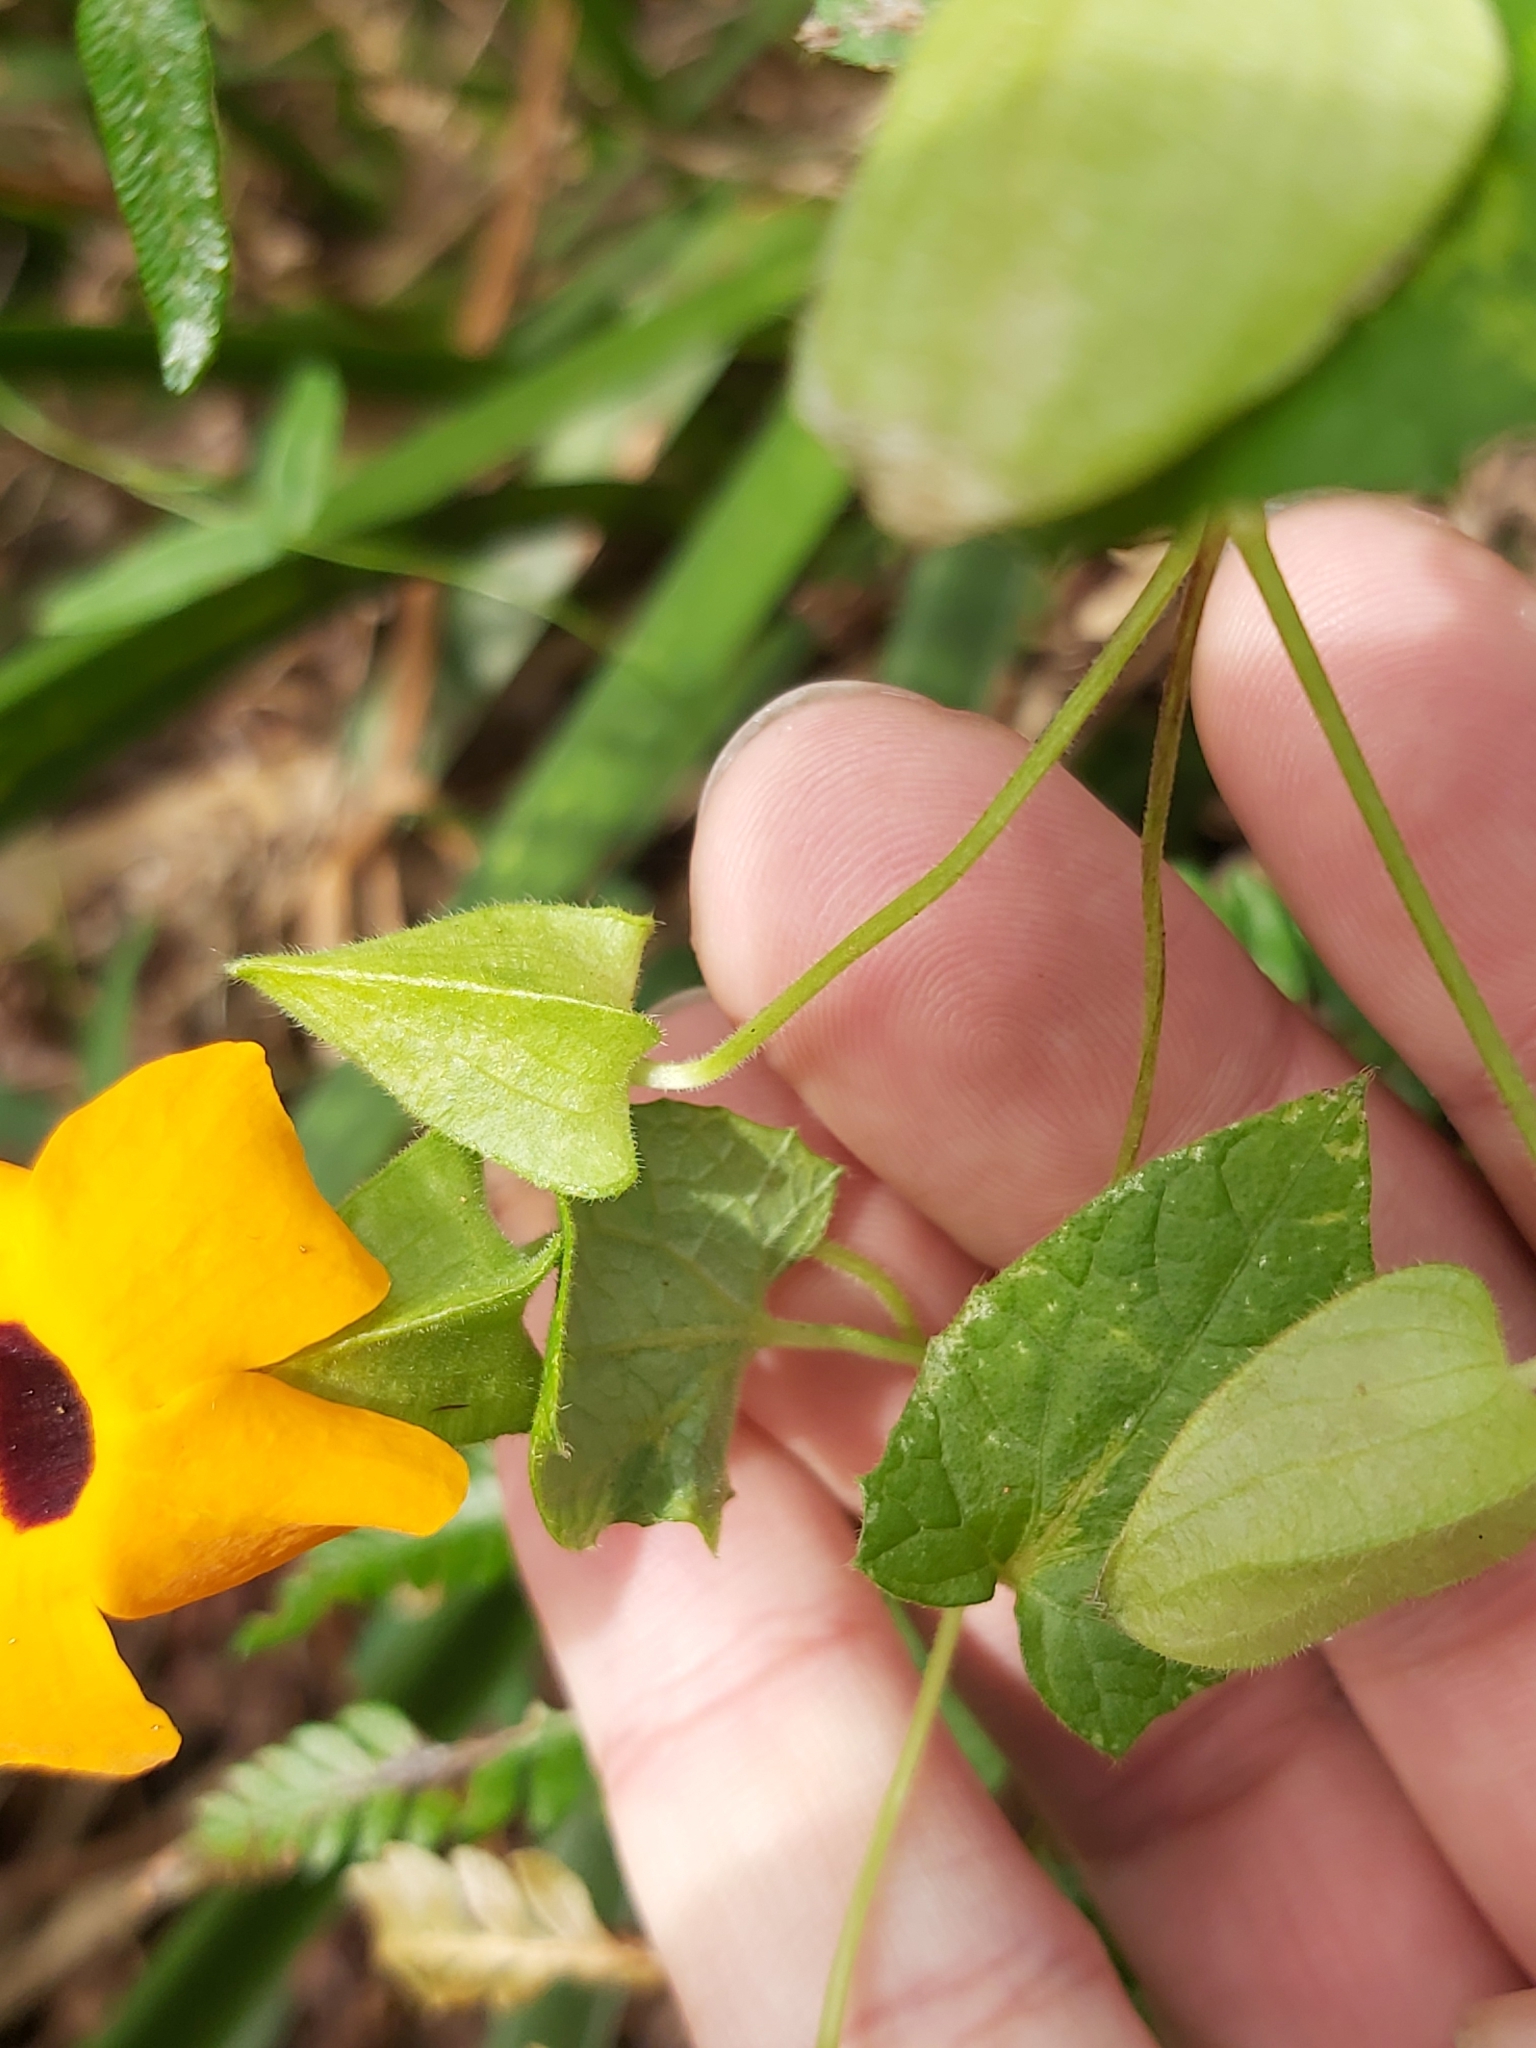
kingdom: Plantae
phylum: Tracheophyta
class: Magnoliopsida
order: Lamiales
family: Acanthaceae
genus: Thunbergia
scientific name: Thunbergia alata
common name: Blackeyed susan vine
